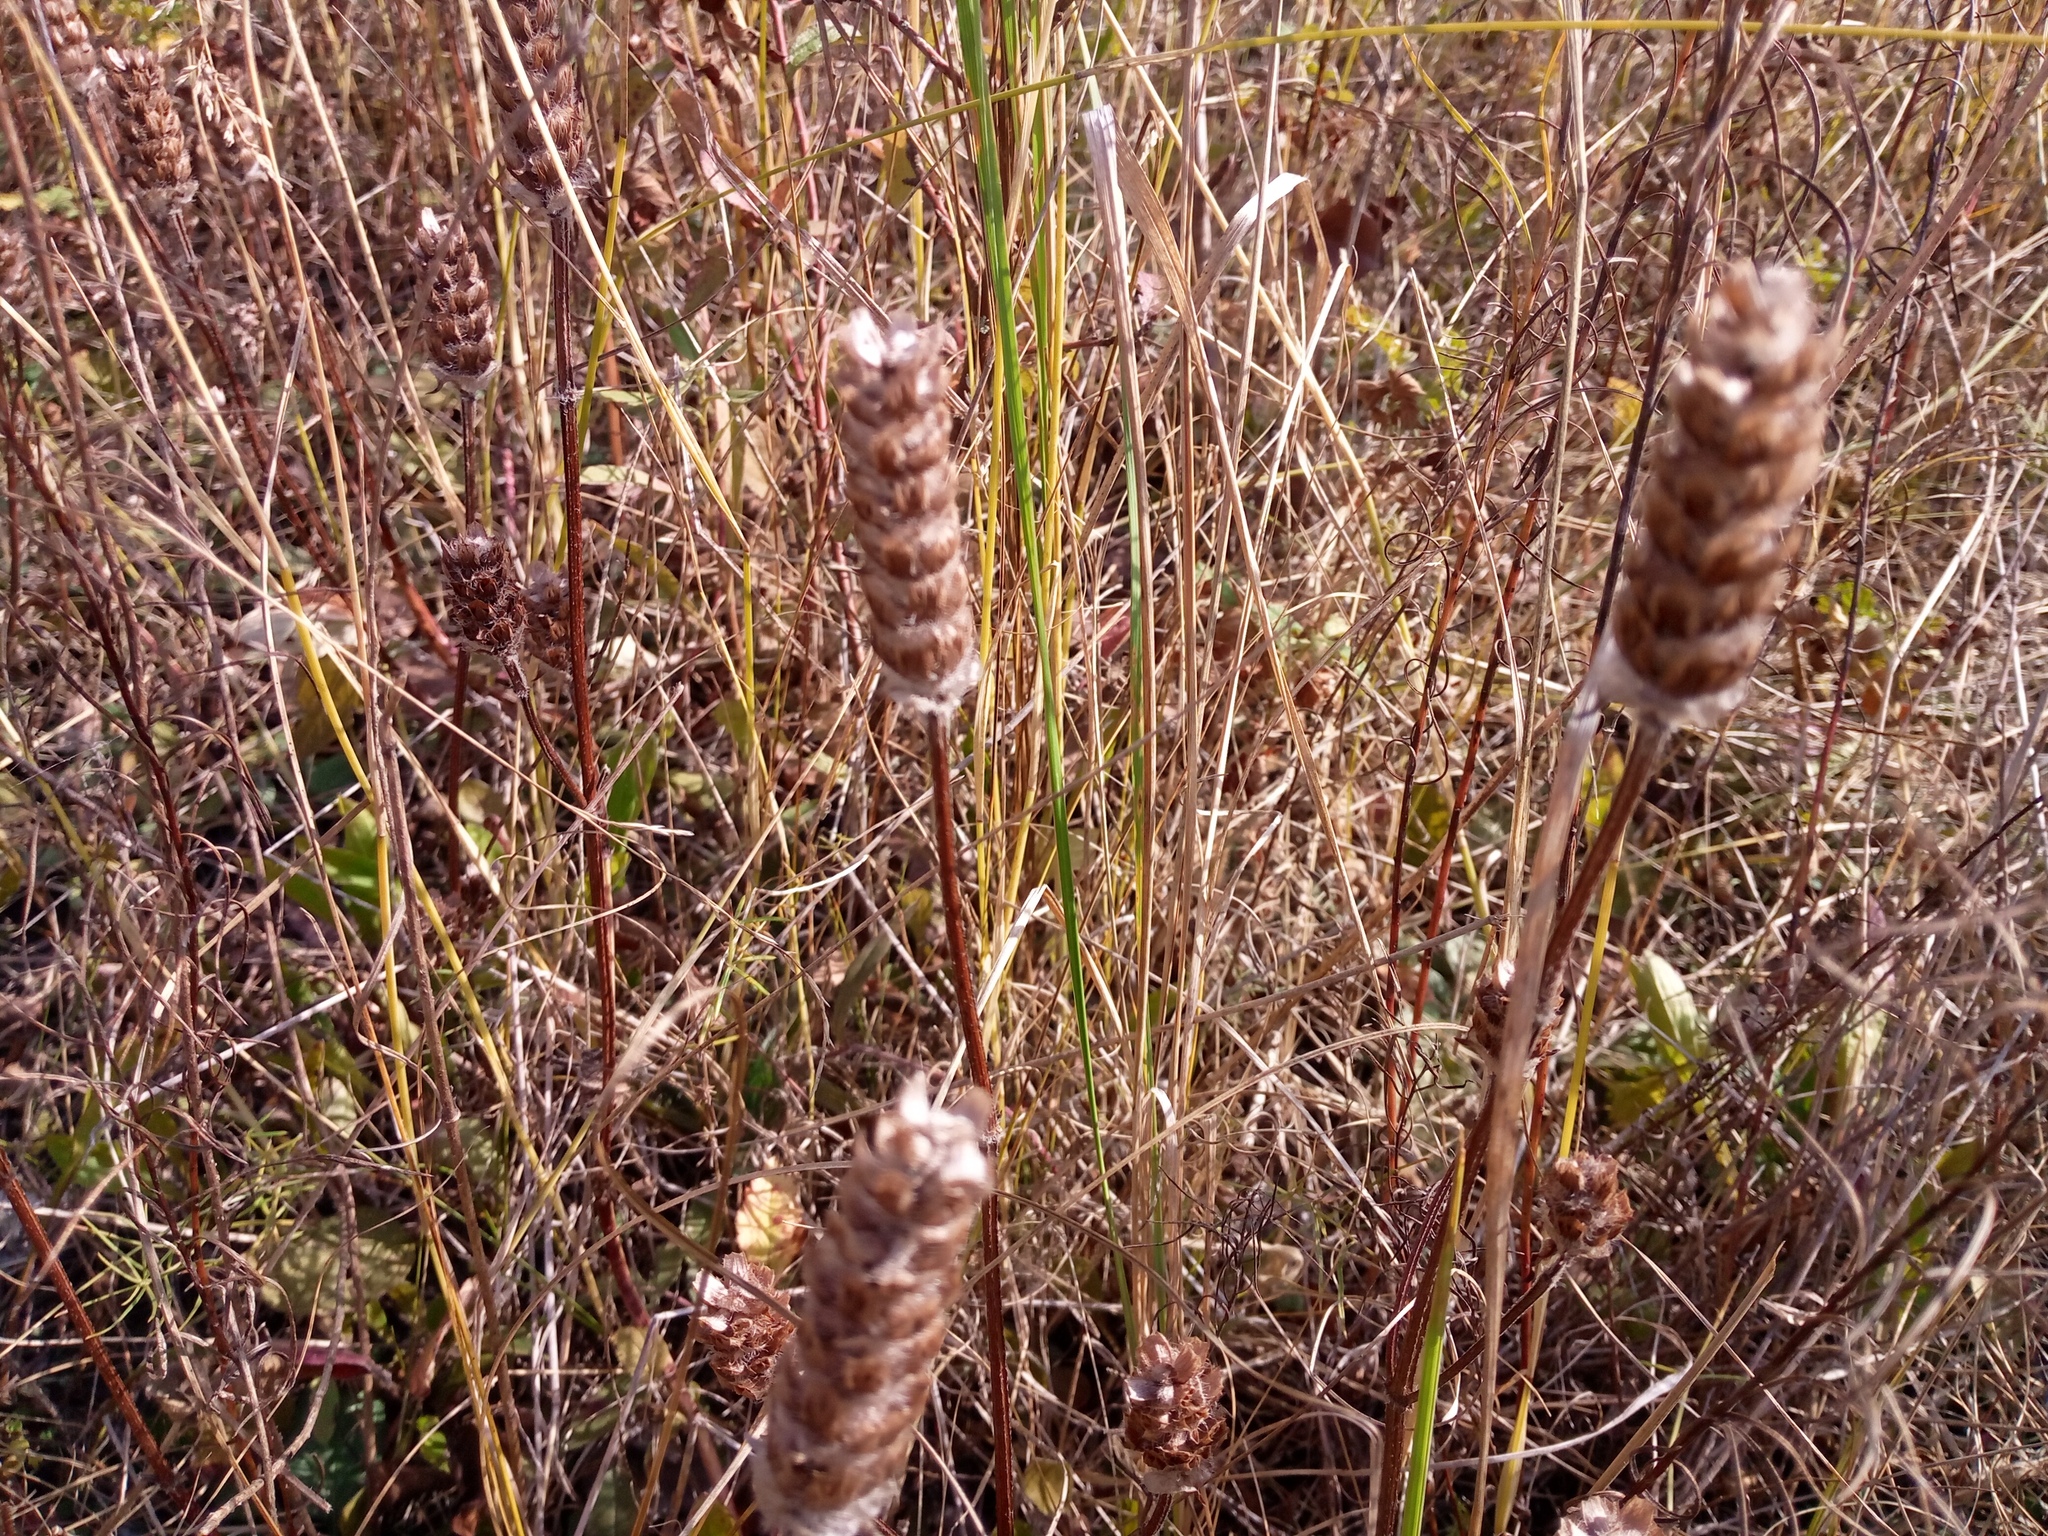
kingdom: Plantae
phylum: Tracheophyta
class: Magnoliopsida
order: Lamiales
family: Lamiaceae
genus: Prunella
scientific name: Prunella vulgaris
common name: Heal-all
